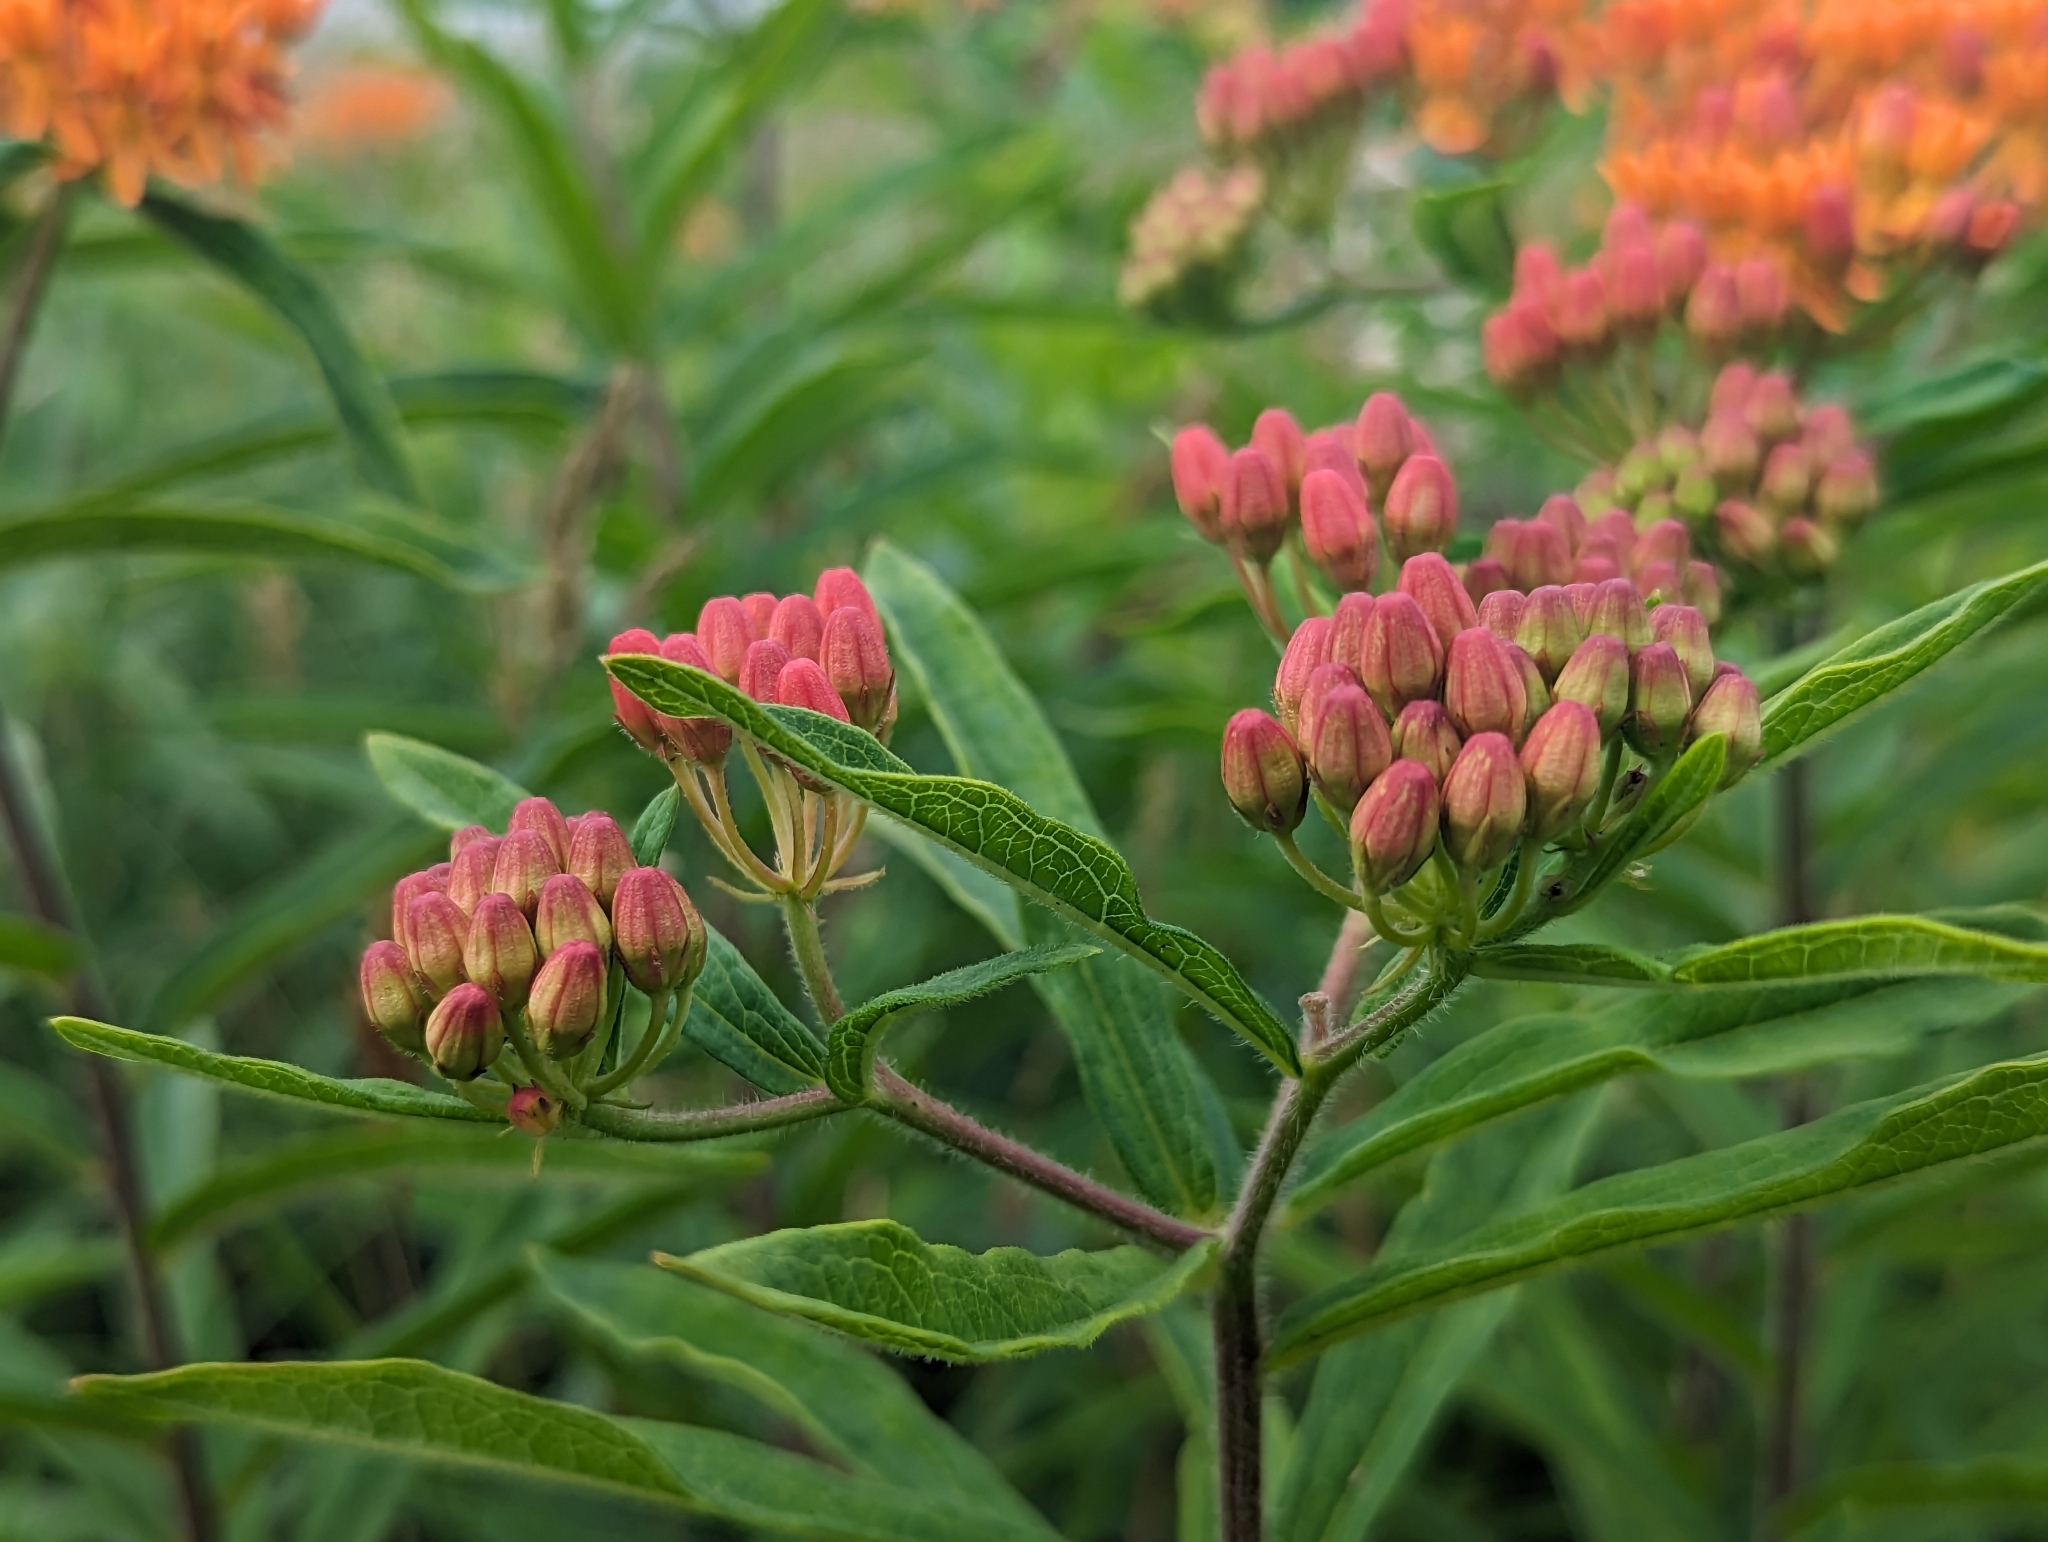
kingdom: Plantae
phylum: Tracheophyta
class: Magnoliopsida
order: Gentianales
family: Apocynaceae
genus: Asclepias
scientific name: Asclepias tuberosa
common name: Butterfly milkweed
